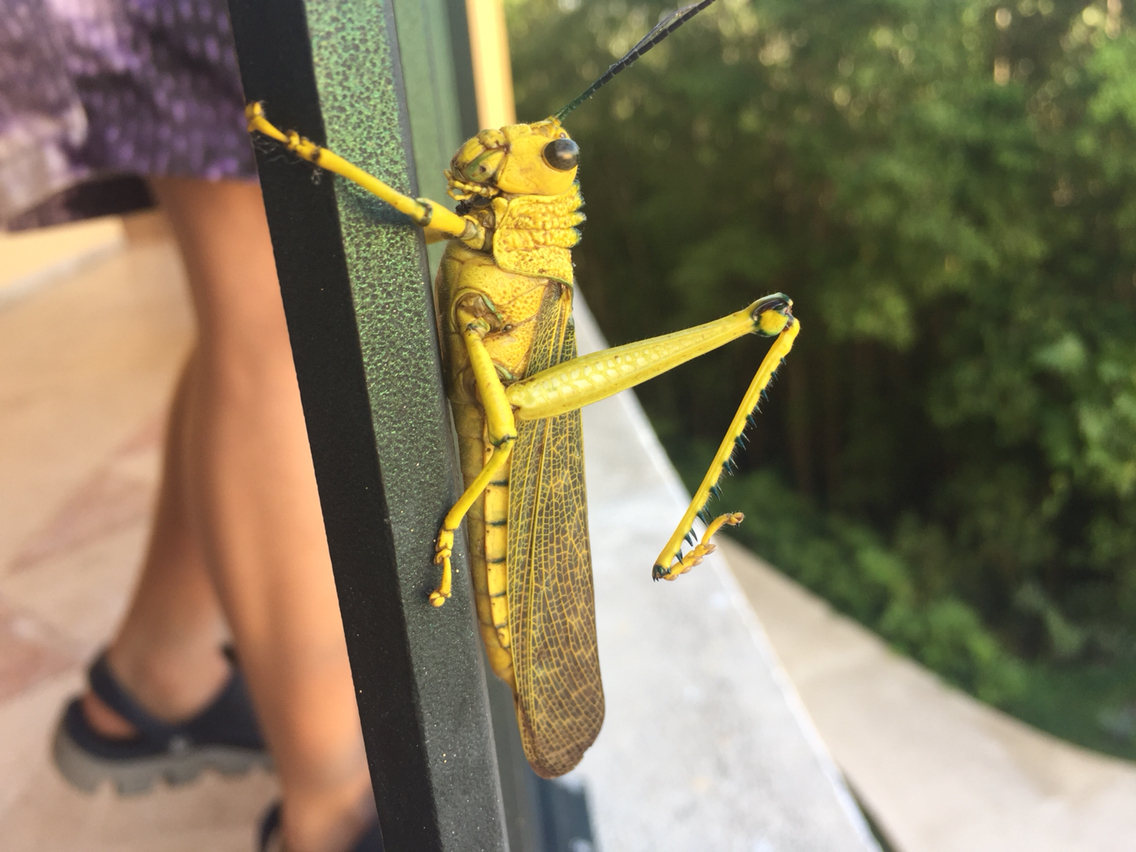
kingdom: Animalia
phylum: Arthropoda
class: Insecta
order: Orthoptera
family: Romaleidae
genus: Tropidacris
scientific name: Tropidacris cristata
